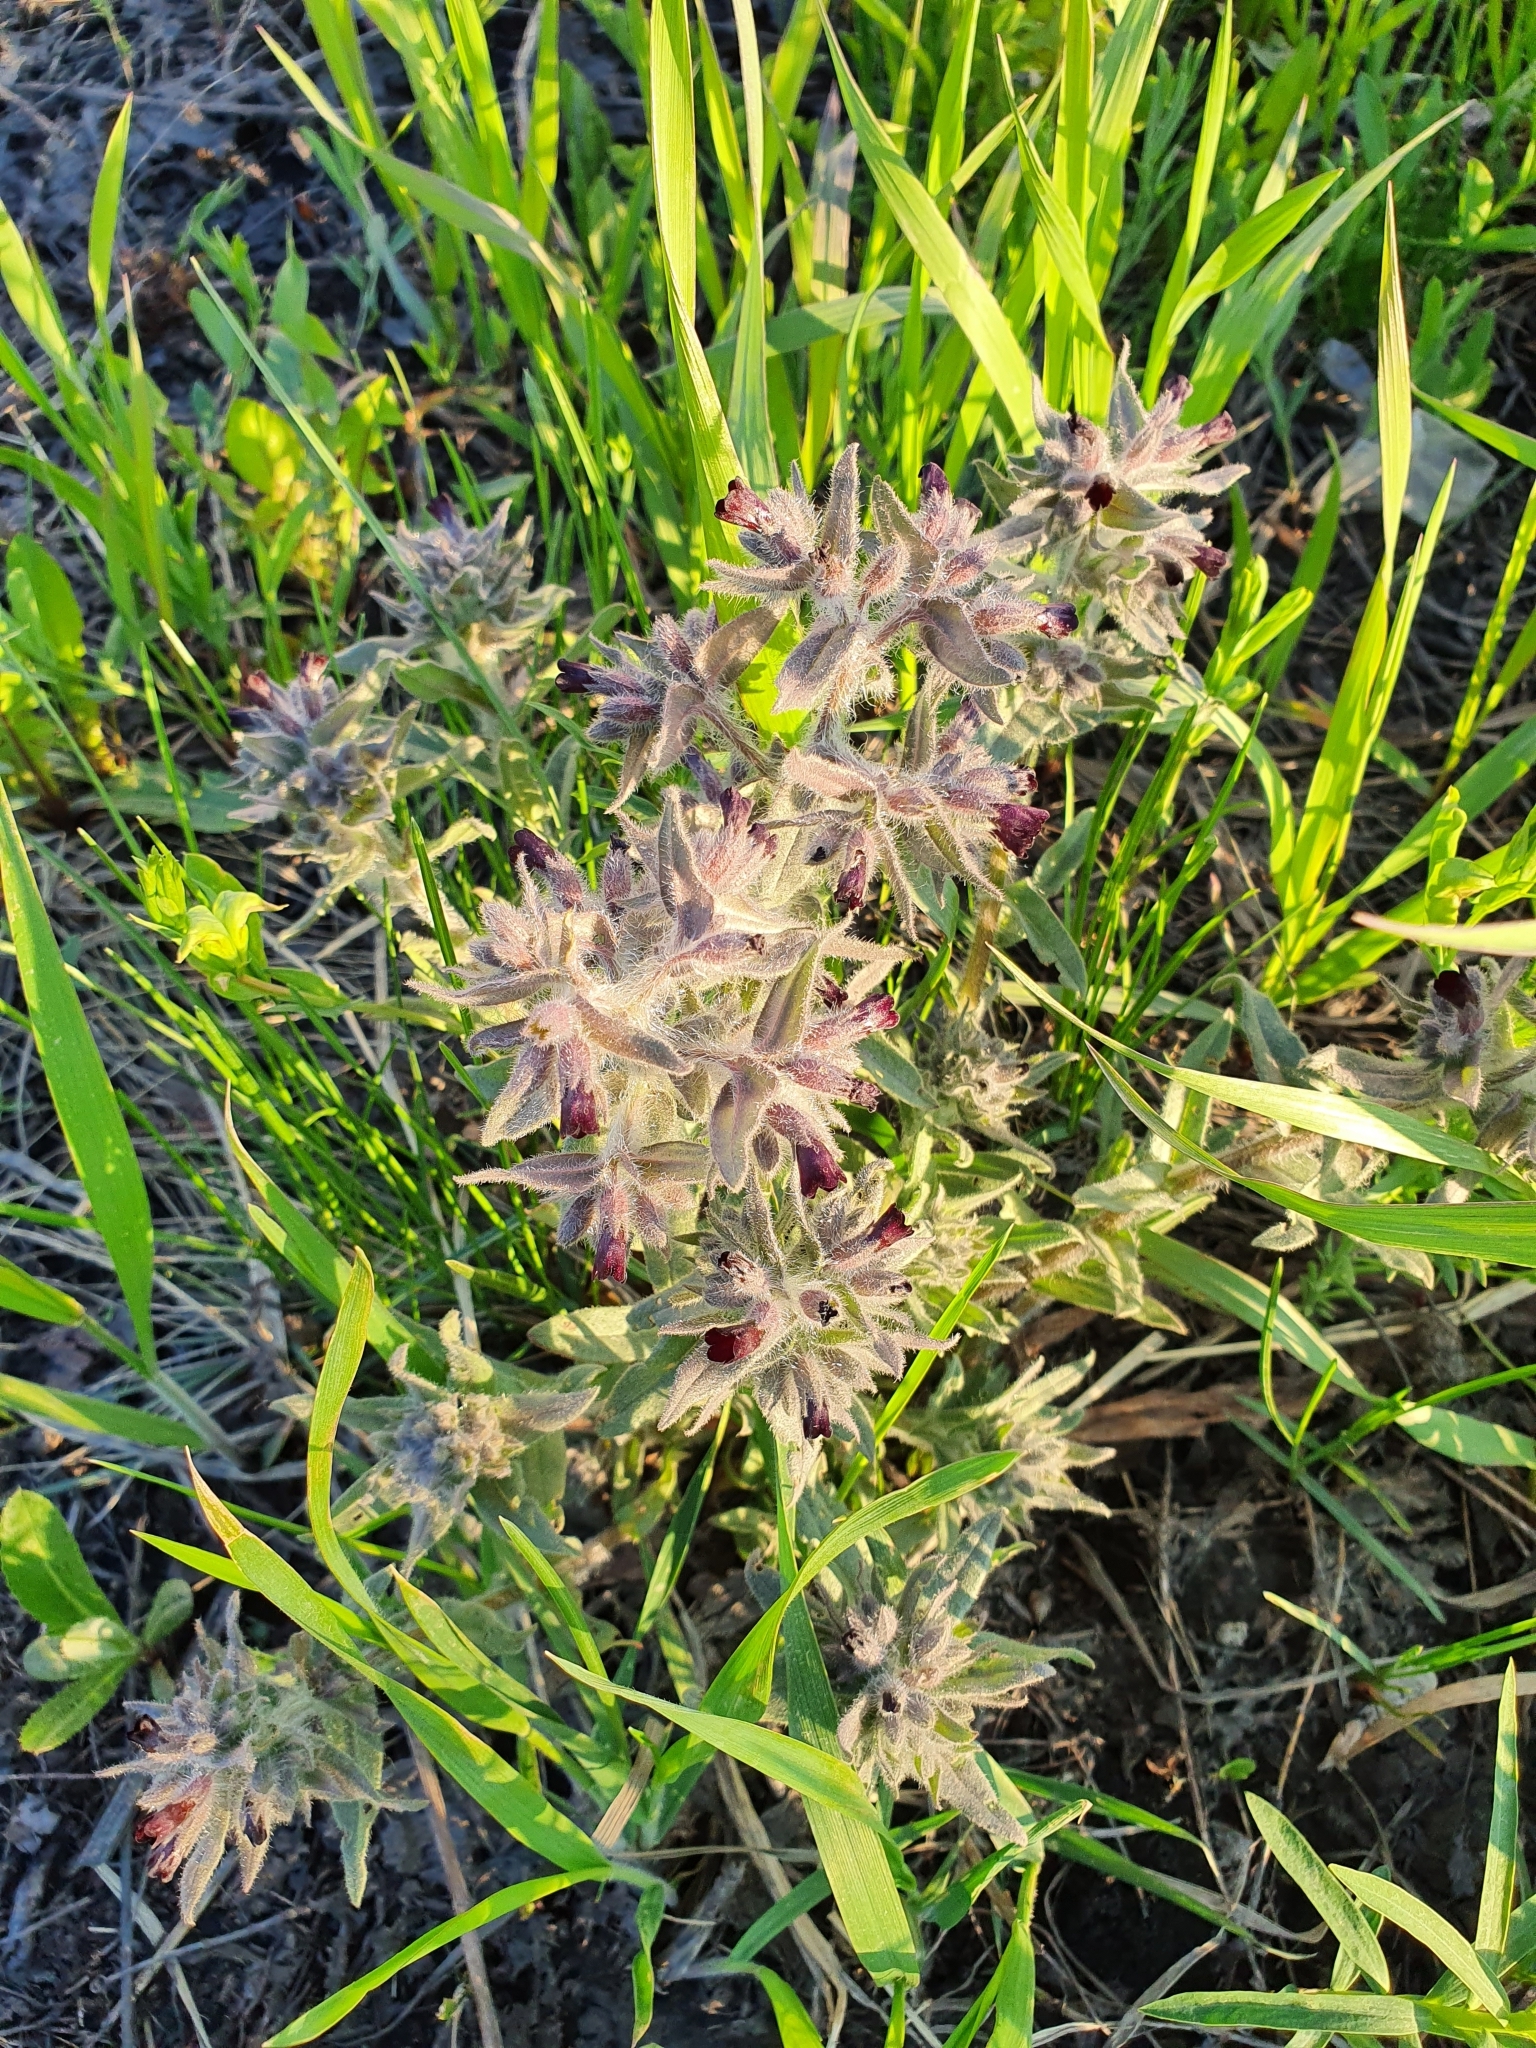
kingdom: Plantae
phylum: Tracheophyta
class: Magnoliopsida
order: Boraginales
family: Boraginaceae
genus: Nonea
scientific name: Nonea pulla
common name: Brown nonea
